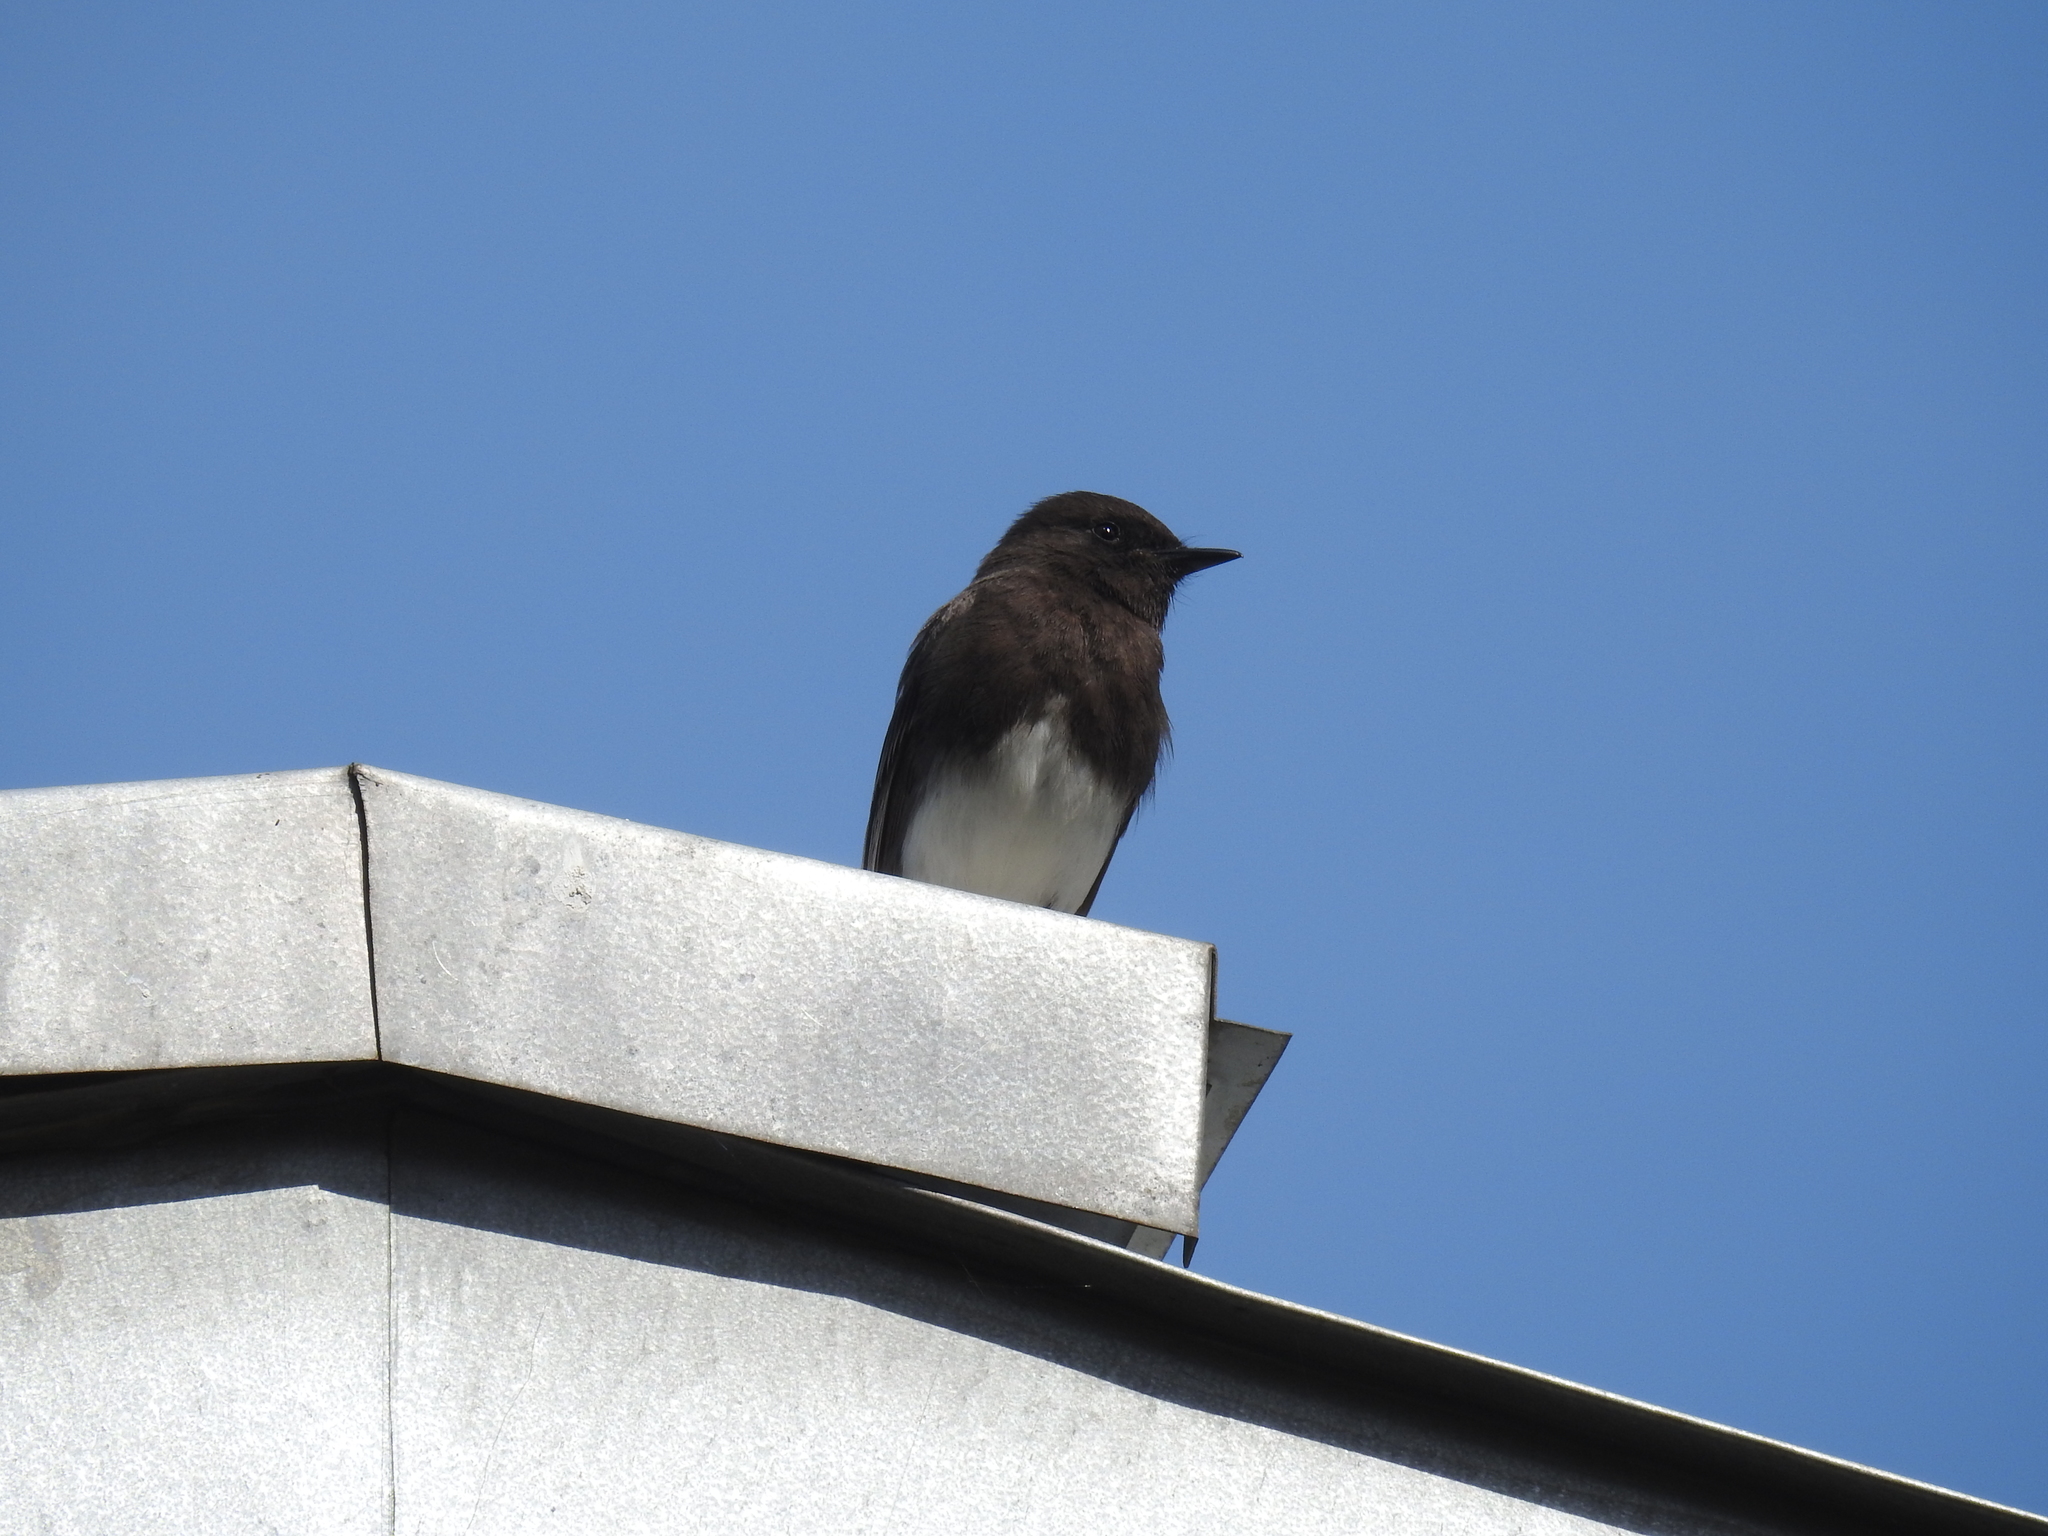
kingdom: Animalia
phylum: Chordata
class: Aves
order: Passeriformes
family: Tyrannidae
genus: Sayornis
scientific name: Sayornis nigricans
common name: Black phoebe
